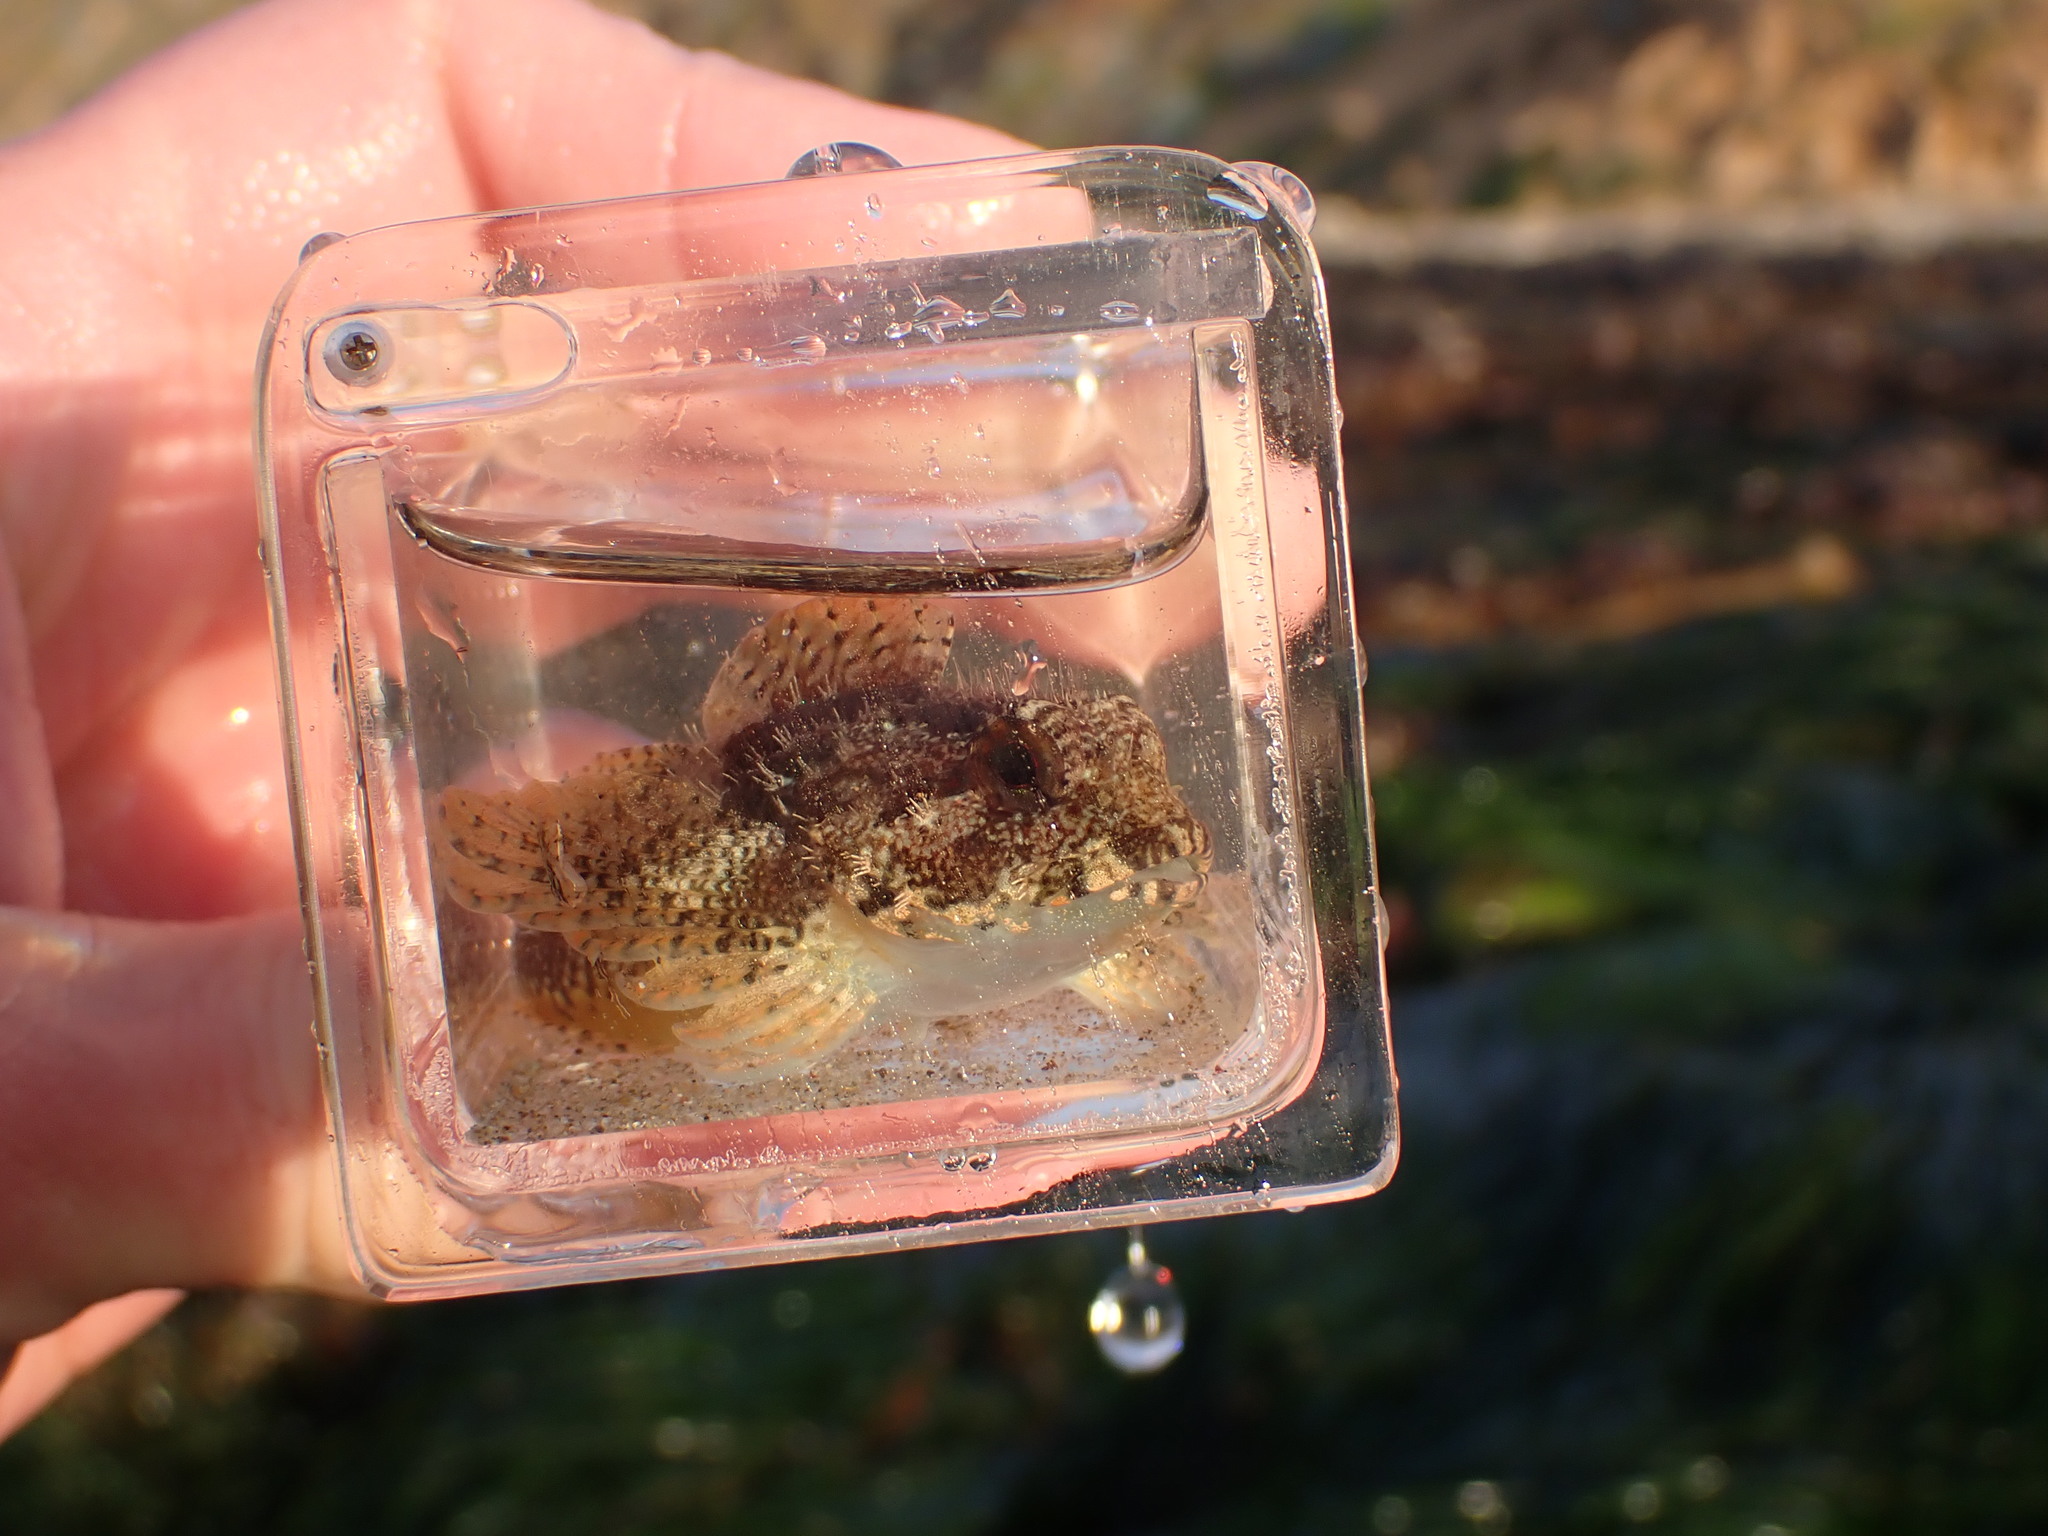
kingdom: Animalia
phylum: Chordata
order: Scorpaeniformes
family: Cottidae
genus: Oligocottus
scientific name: Oligocottus rubellio
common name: Rosy sculpin
